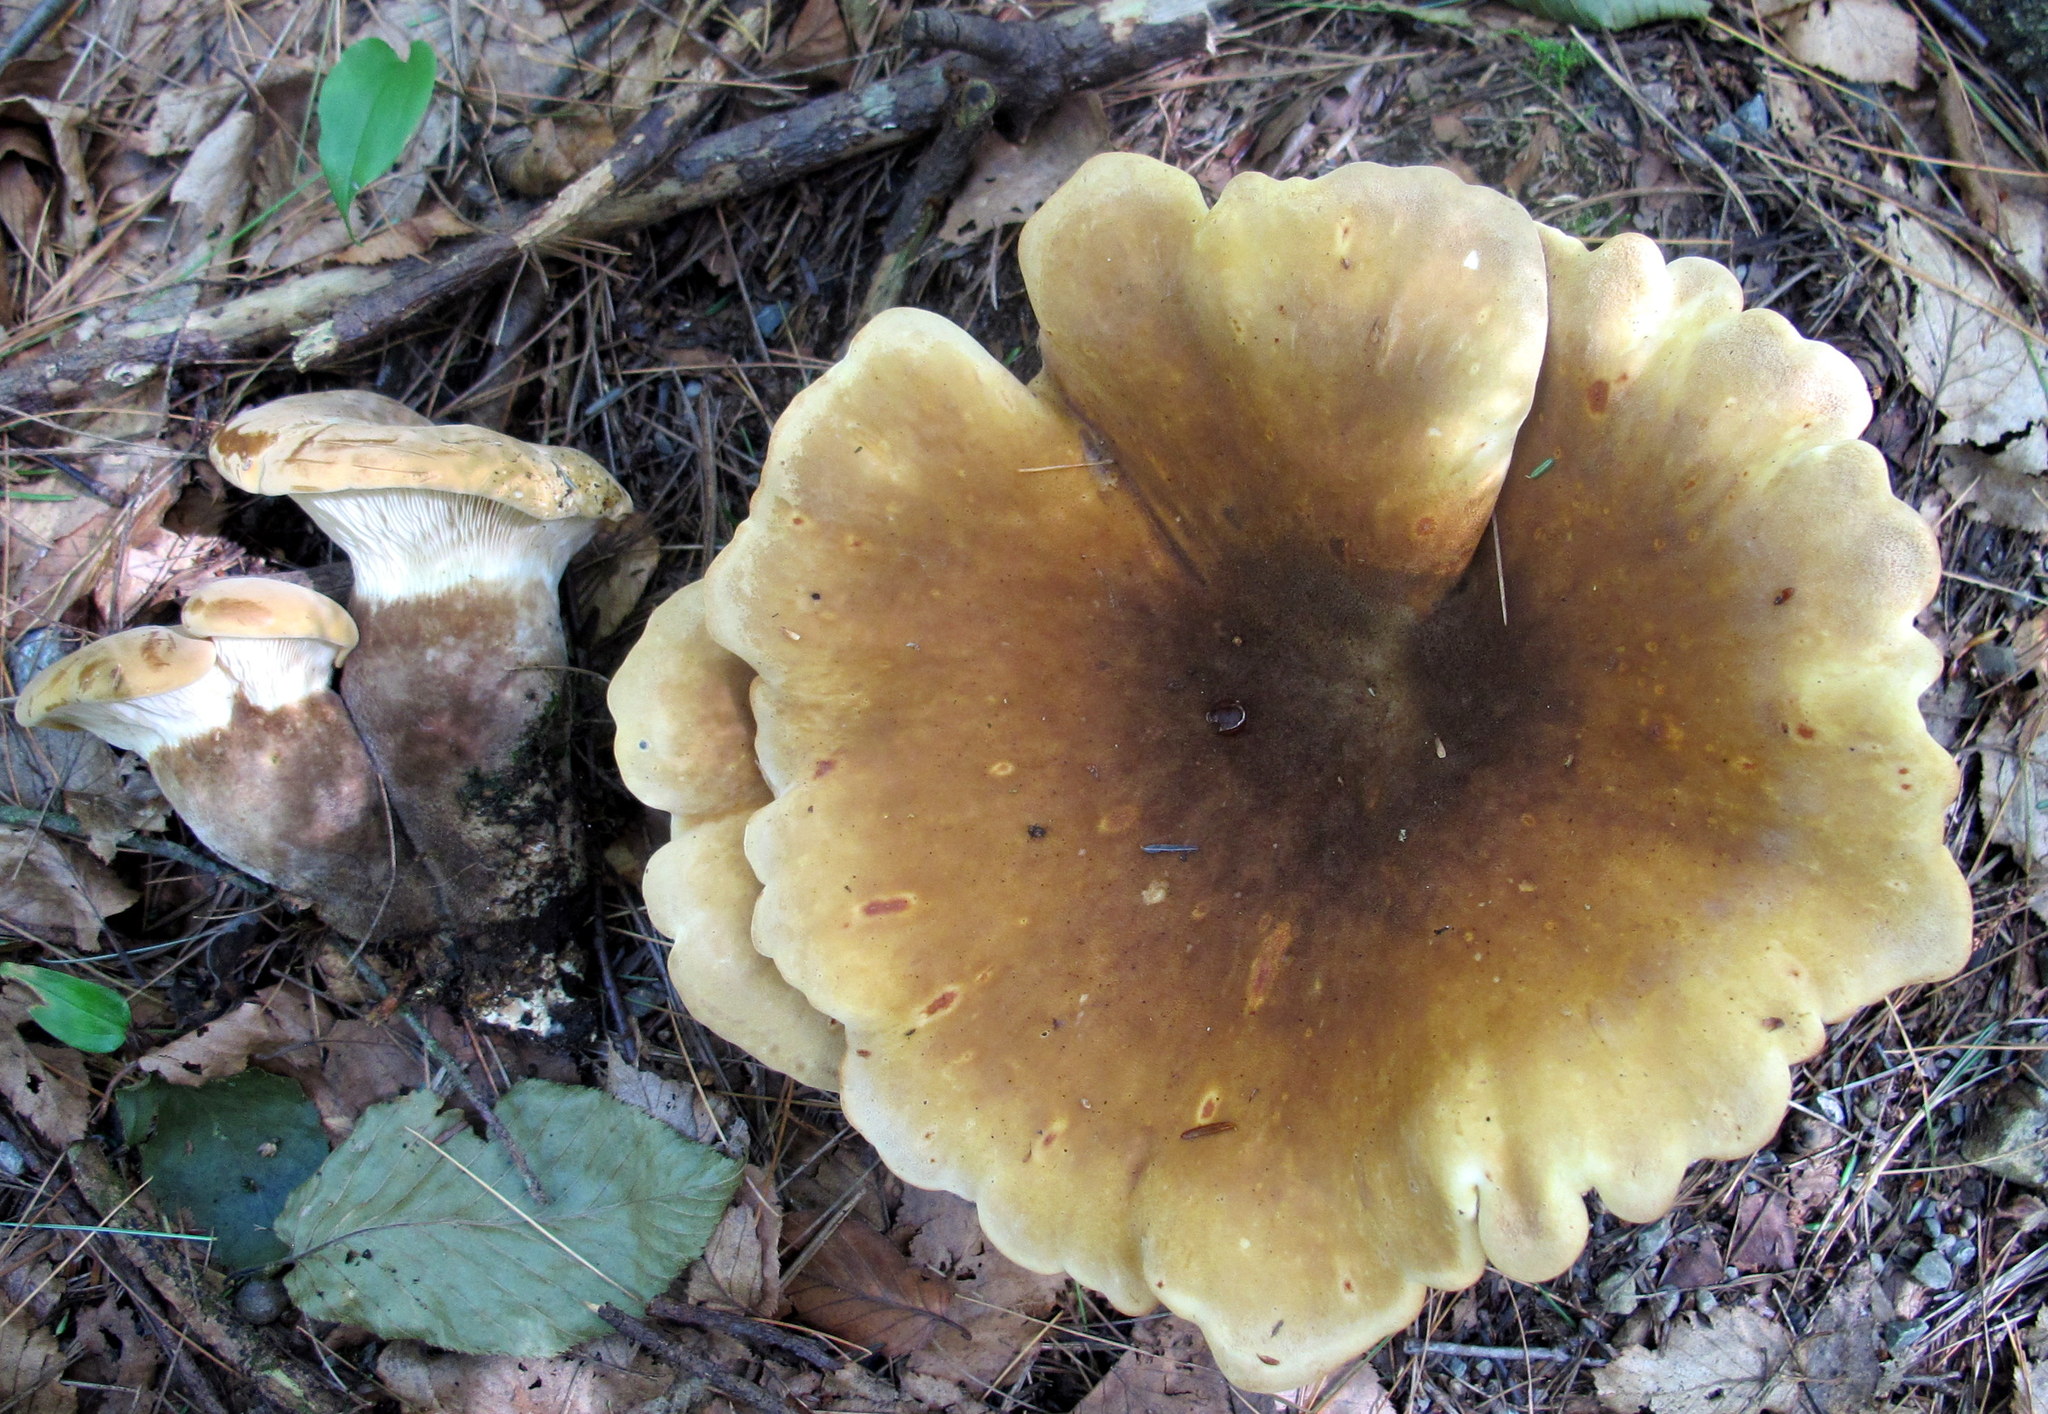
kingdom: Fungi
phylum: Basidiomycota
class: Agaricomycetes
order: Boletales
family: Tapinellaceae
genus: Tapinella
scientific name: Tapinella atrotomentosa
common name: Velvet rollrim
